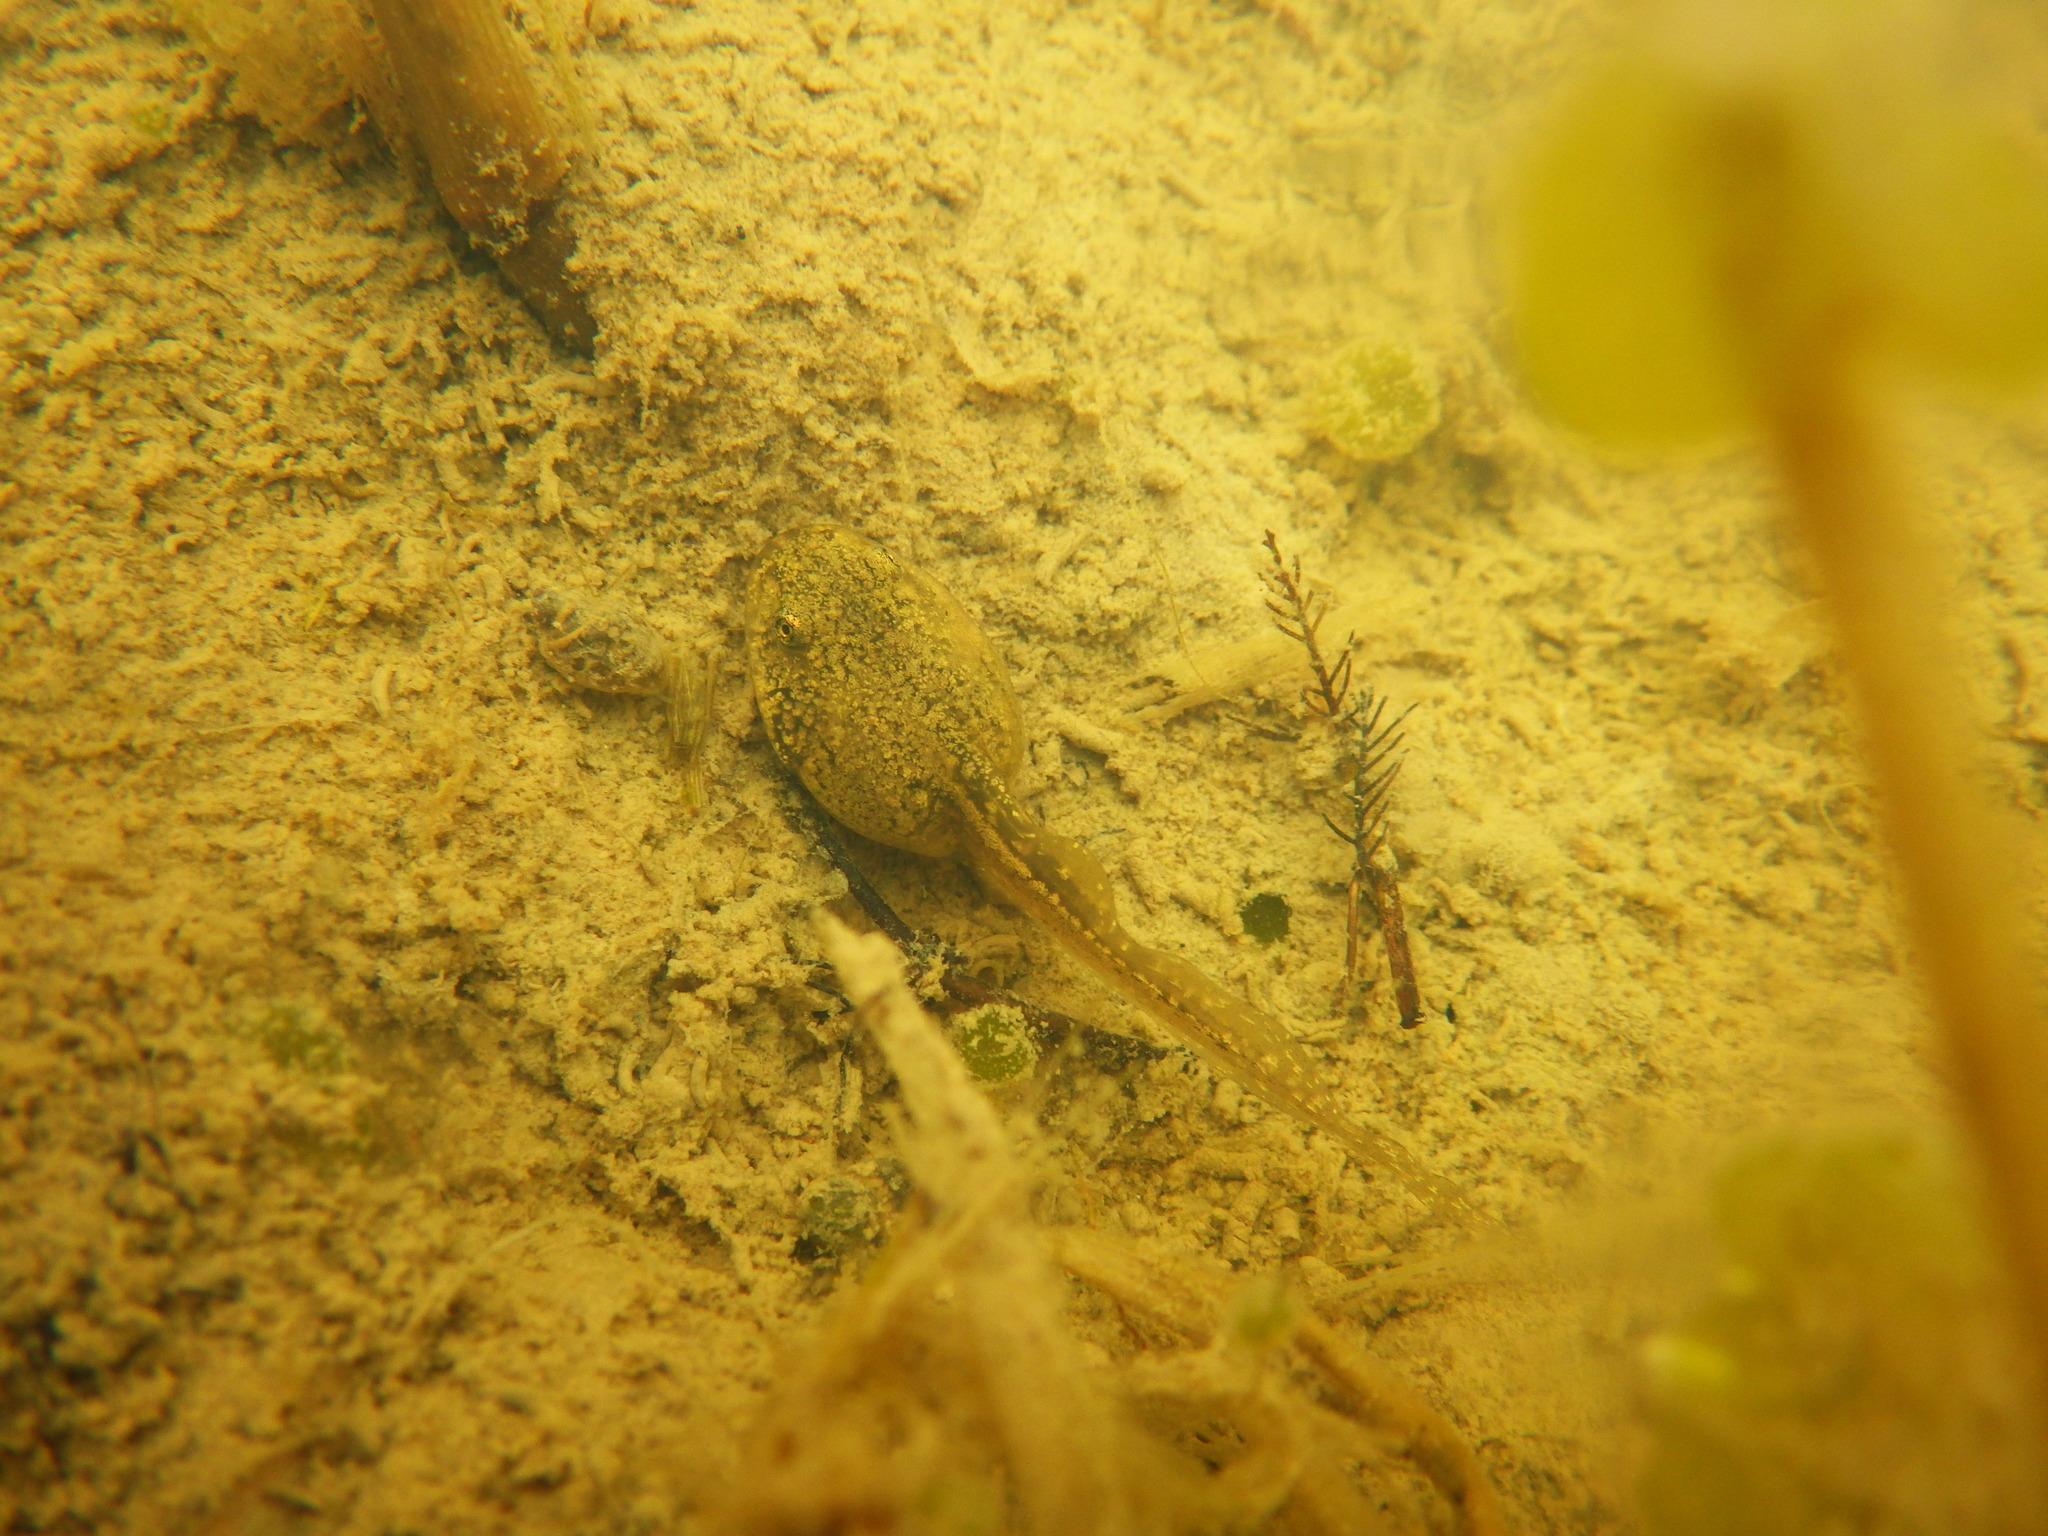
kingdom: Animalia
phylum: Chordata
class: Amphibia
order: Anura
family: Ranidae
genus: Rana
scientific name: Rana temporaria
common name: Common frog
